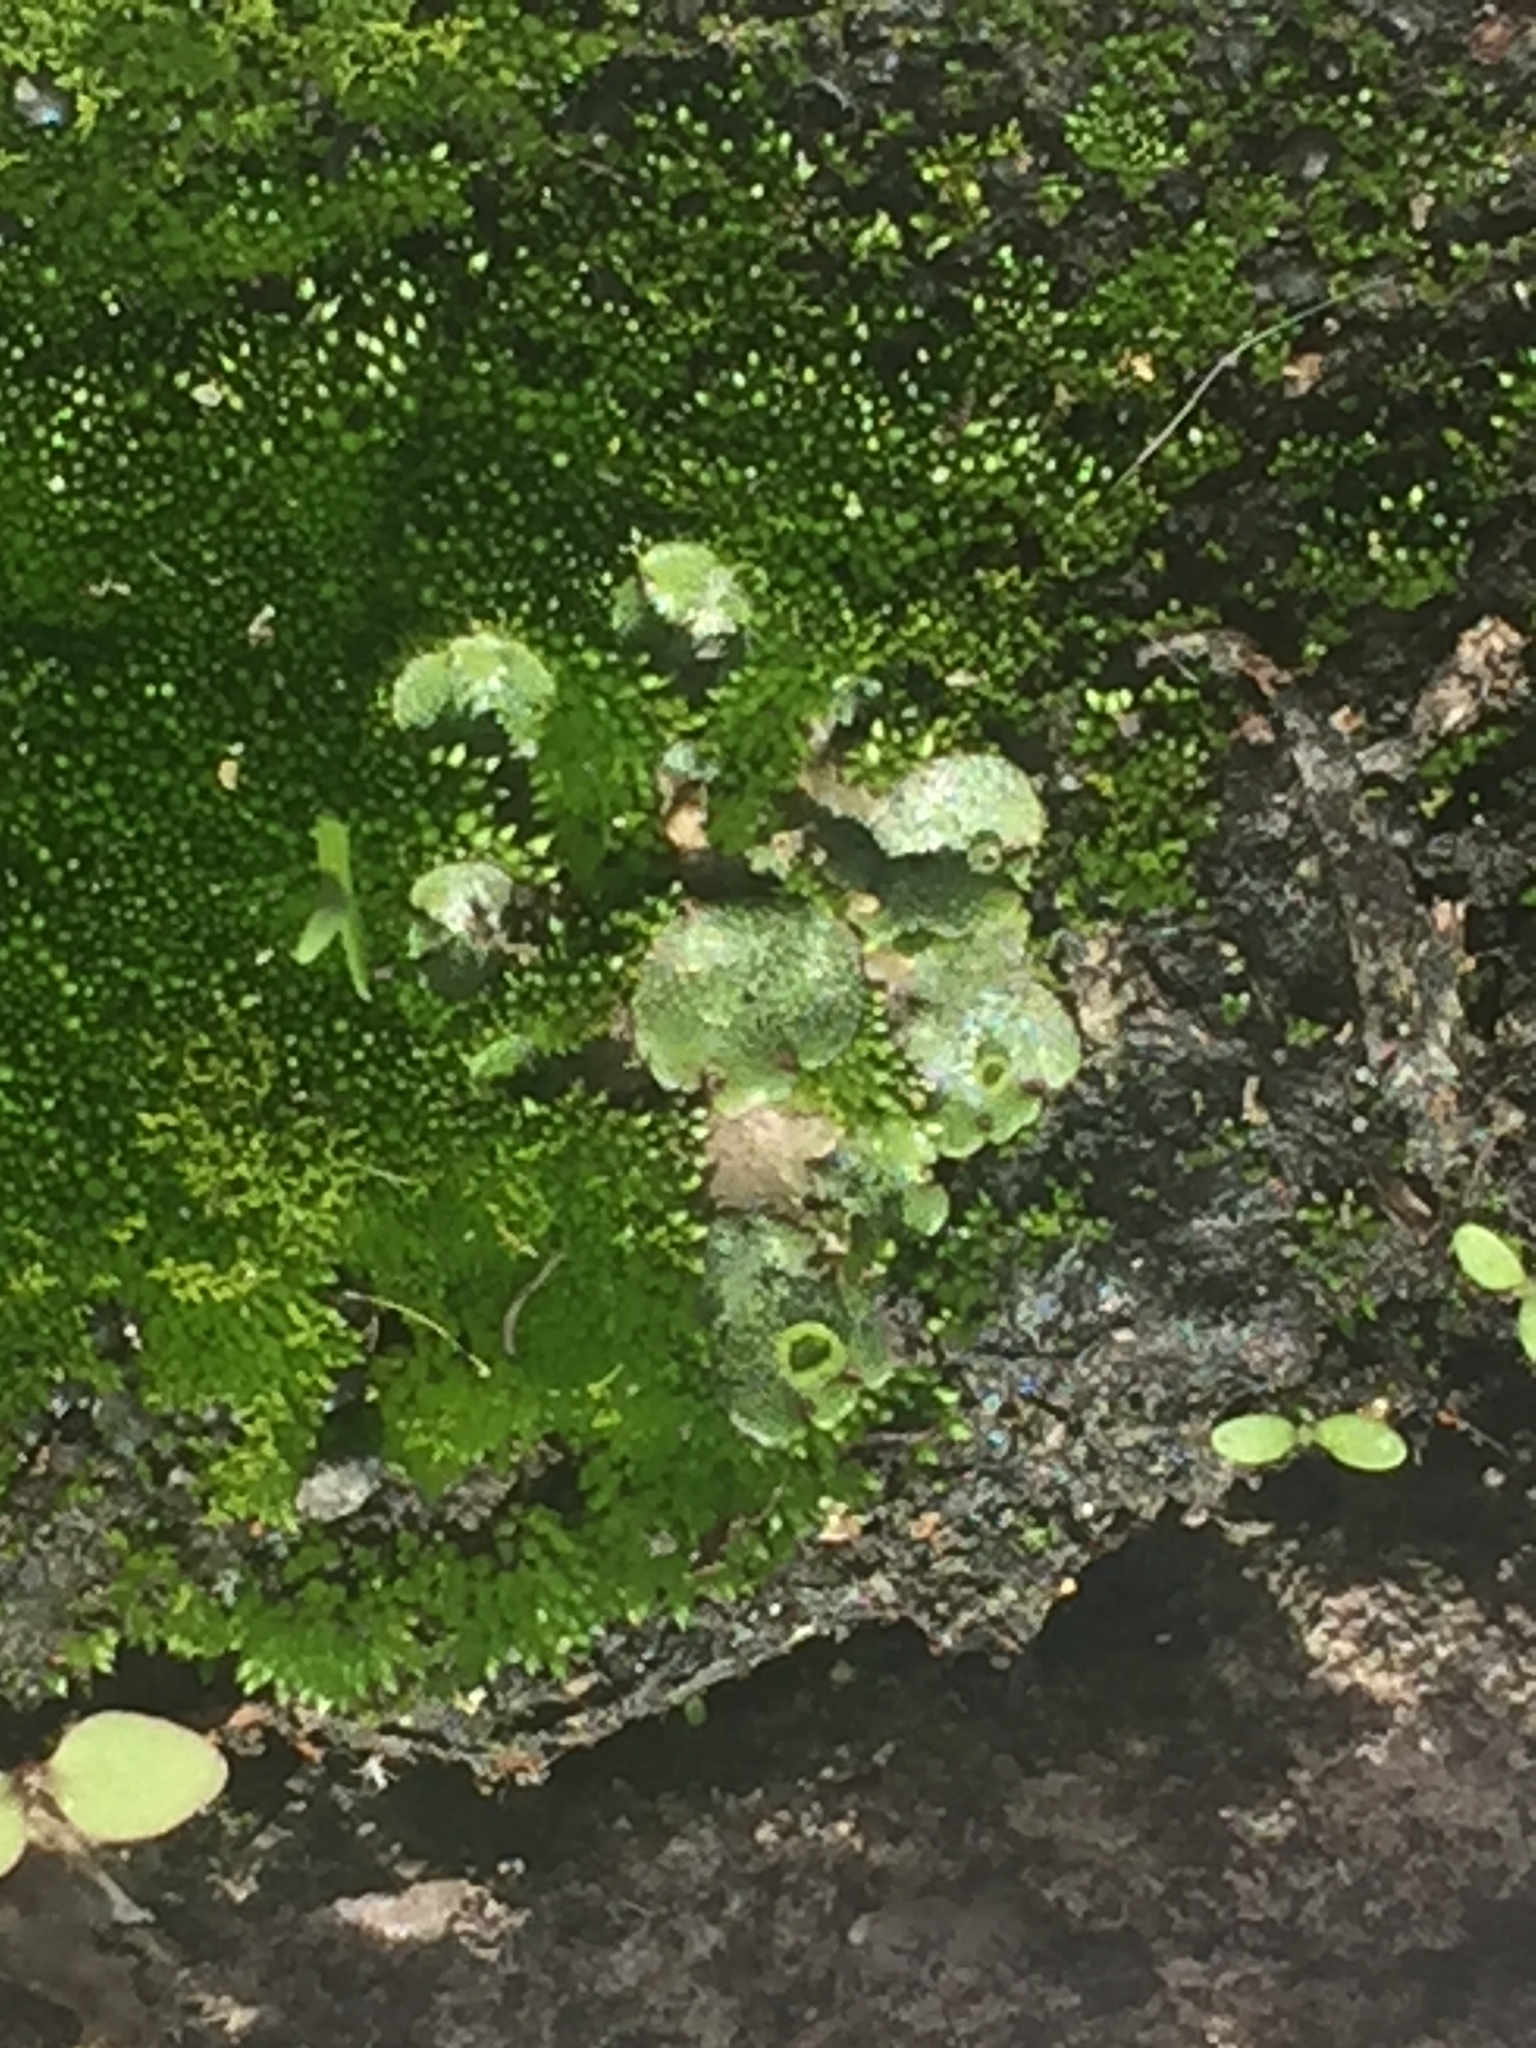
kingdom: Plantae
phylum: Marchantiophyta
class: Marchantiopsida
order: Marchantiales
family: Marchantiaceae
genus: Marchantia
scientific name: Marchantia polymorpha
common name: Common liverwort
